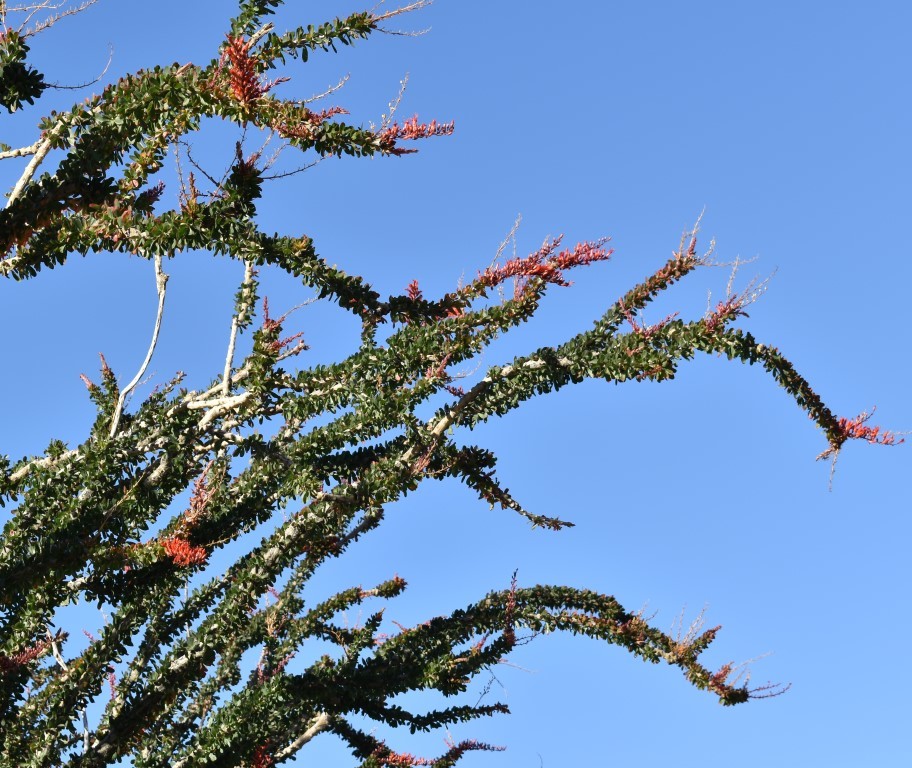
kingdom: Plantae
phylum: Tracheophyta
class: Magnoliopsida
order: Ericales
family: Fouquieriaceae
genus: Fouquieria
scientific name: Fouquieria splendens
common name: Vine-cactus
